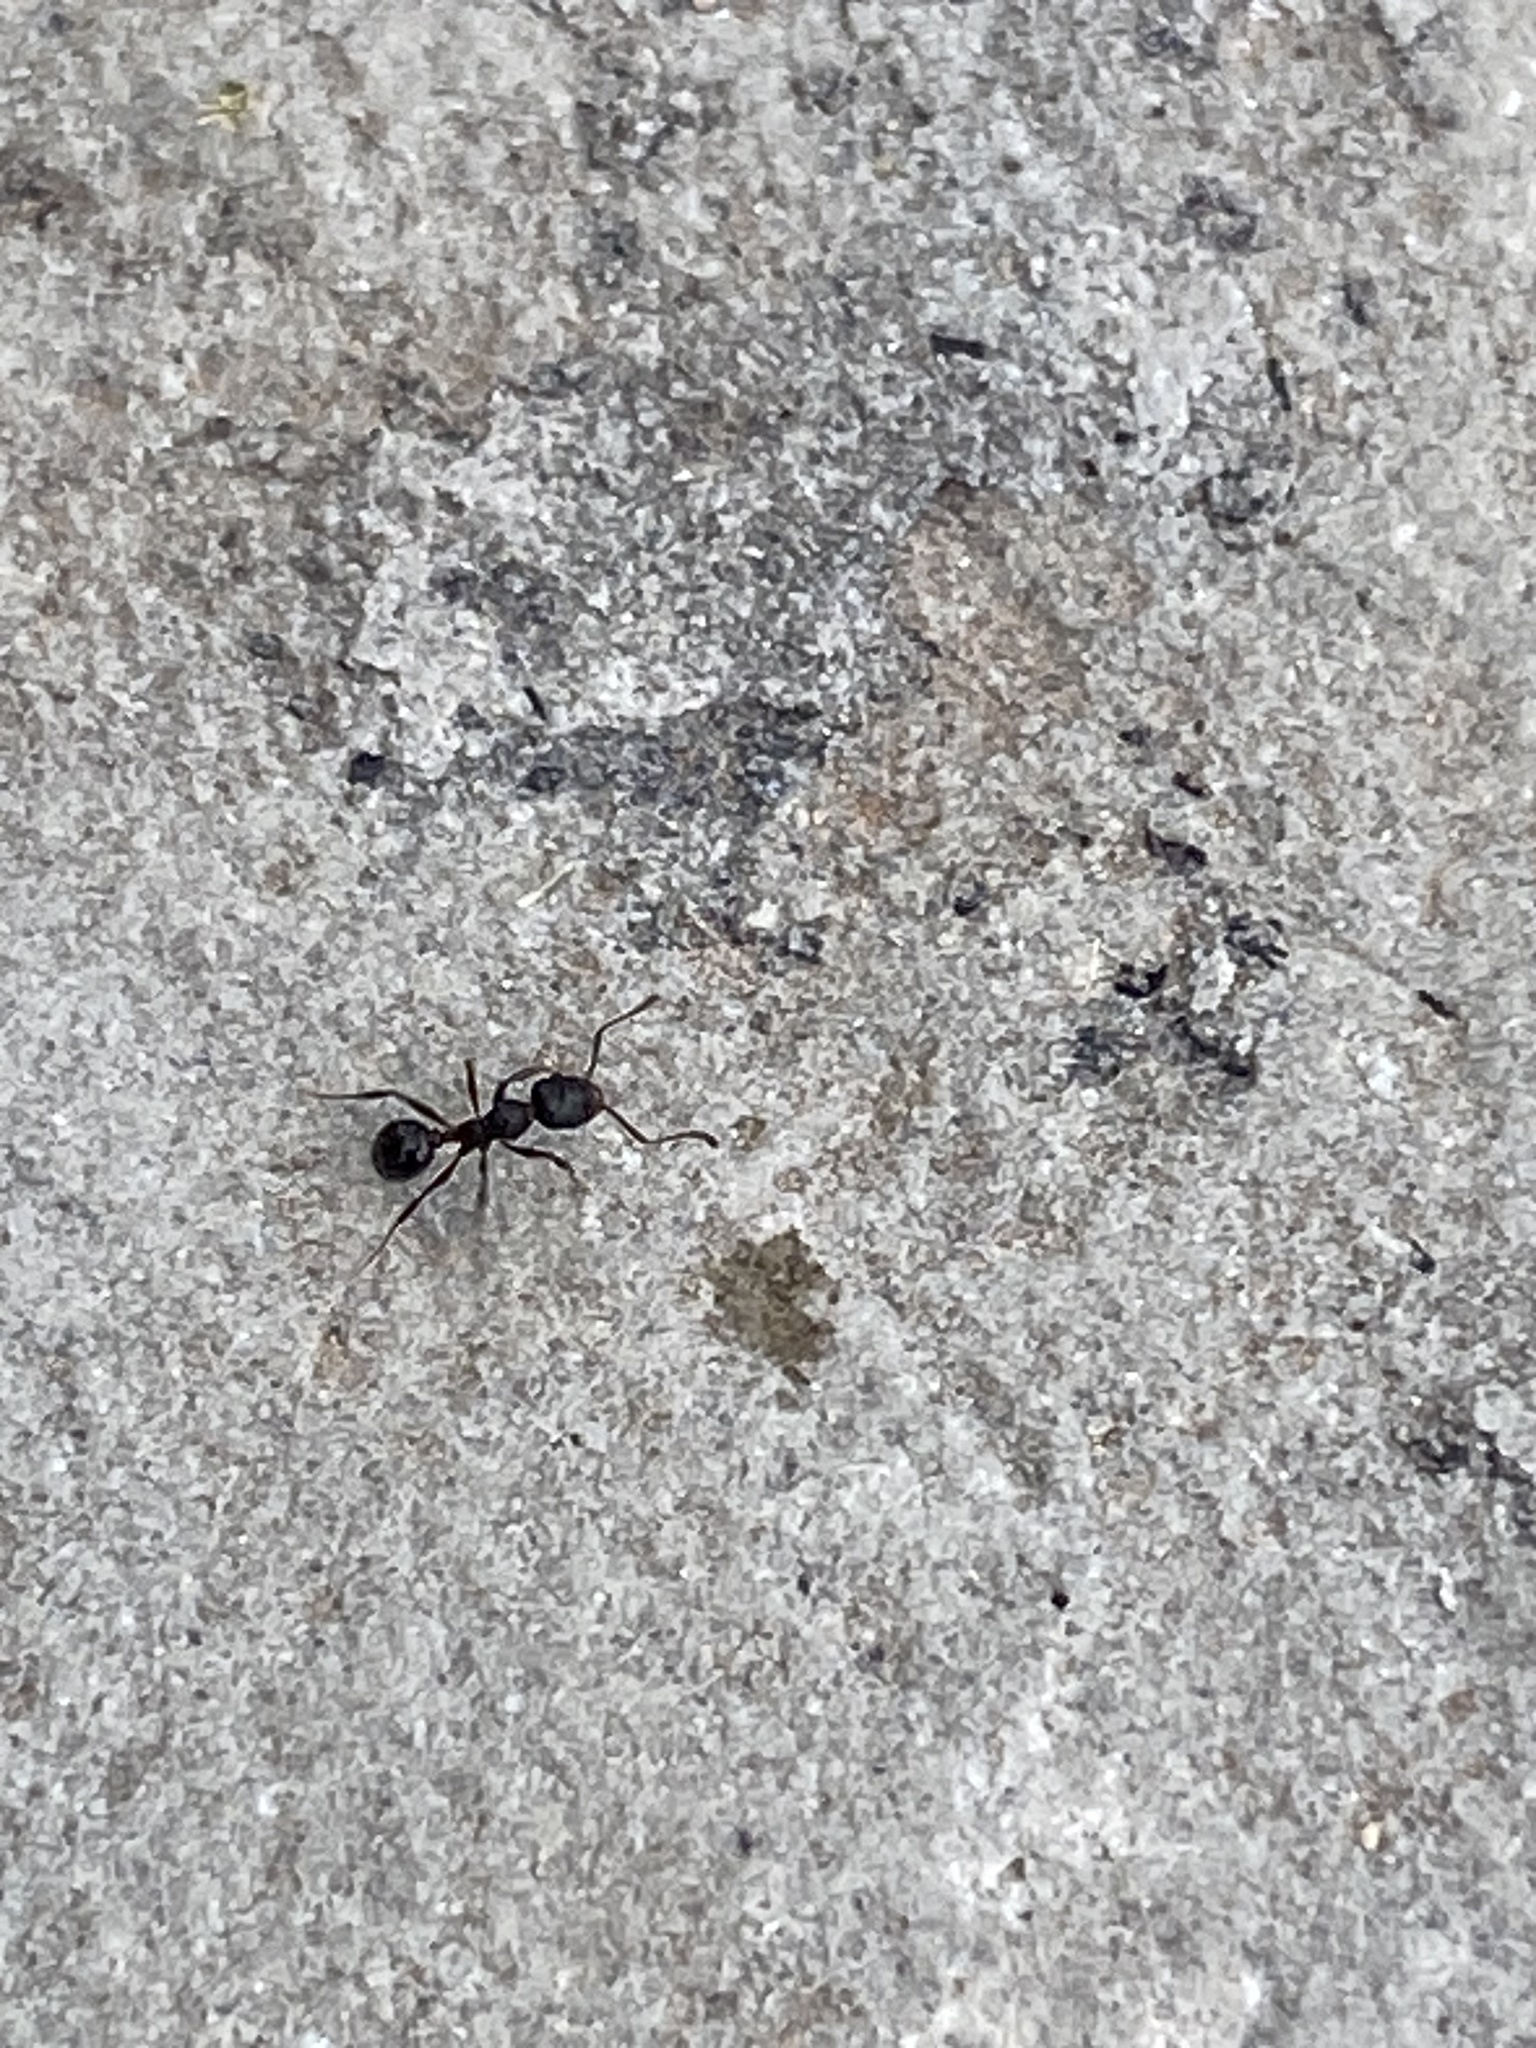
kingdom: Animalia
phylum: Arthropoda
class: Insecta
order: Hymenoptera
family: Formicidae
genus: Pheidole
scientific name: Pheidole metallescens
